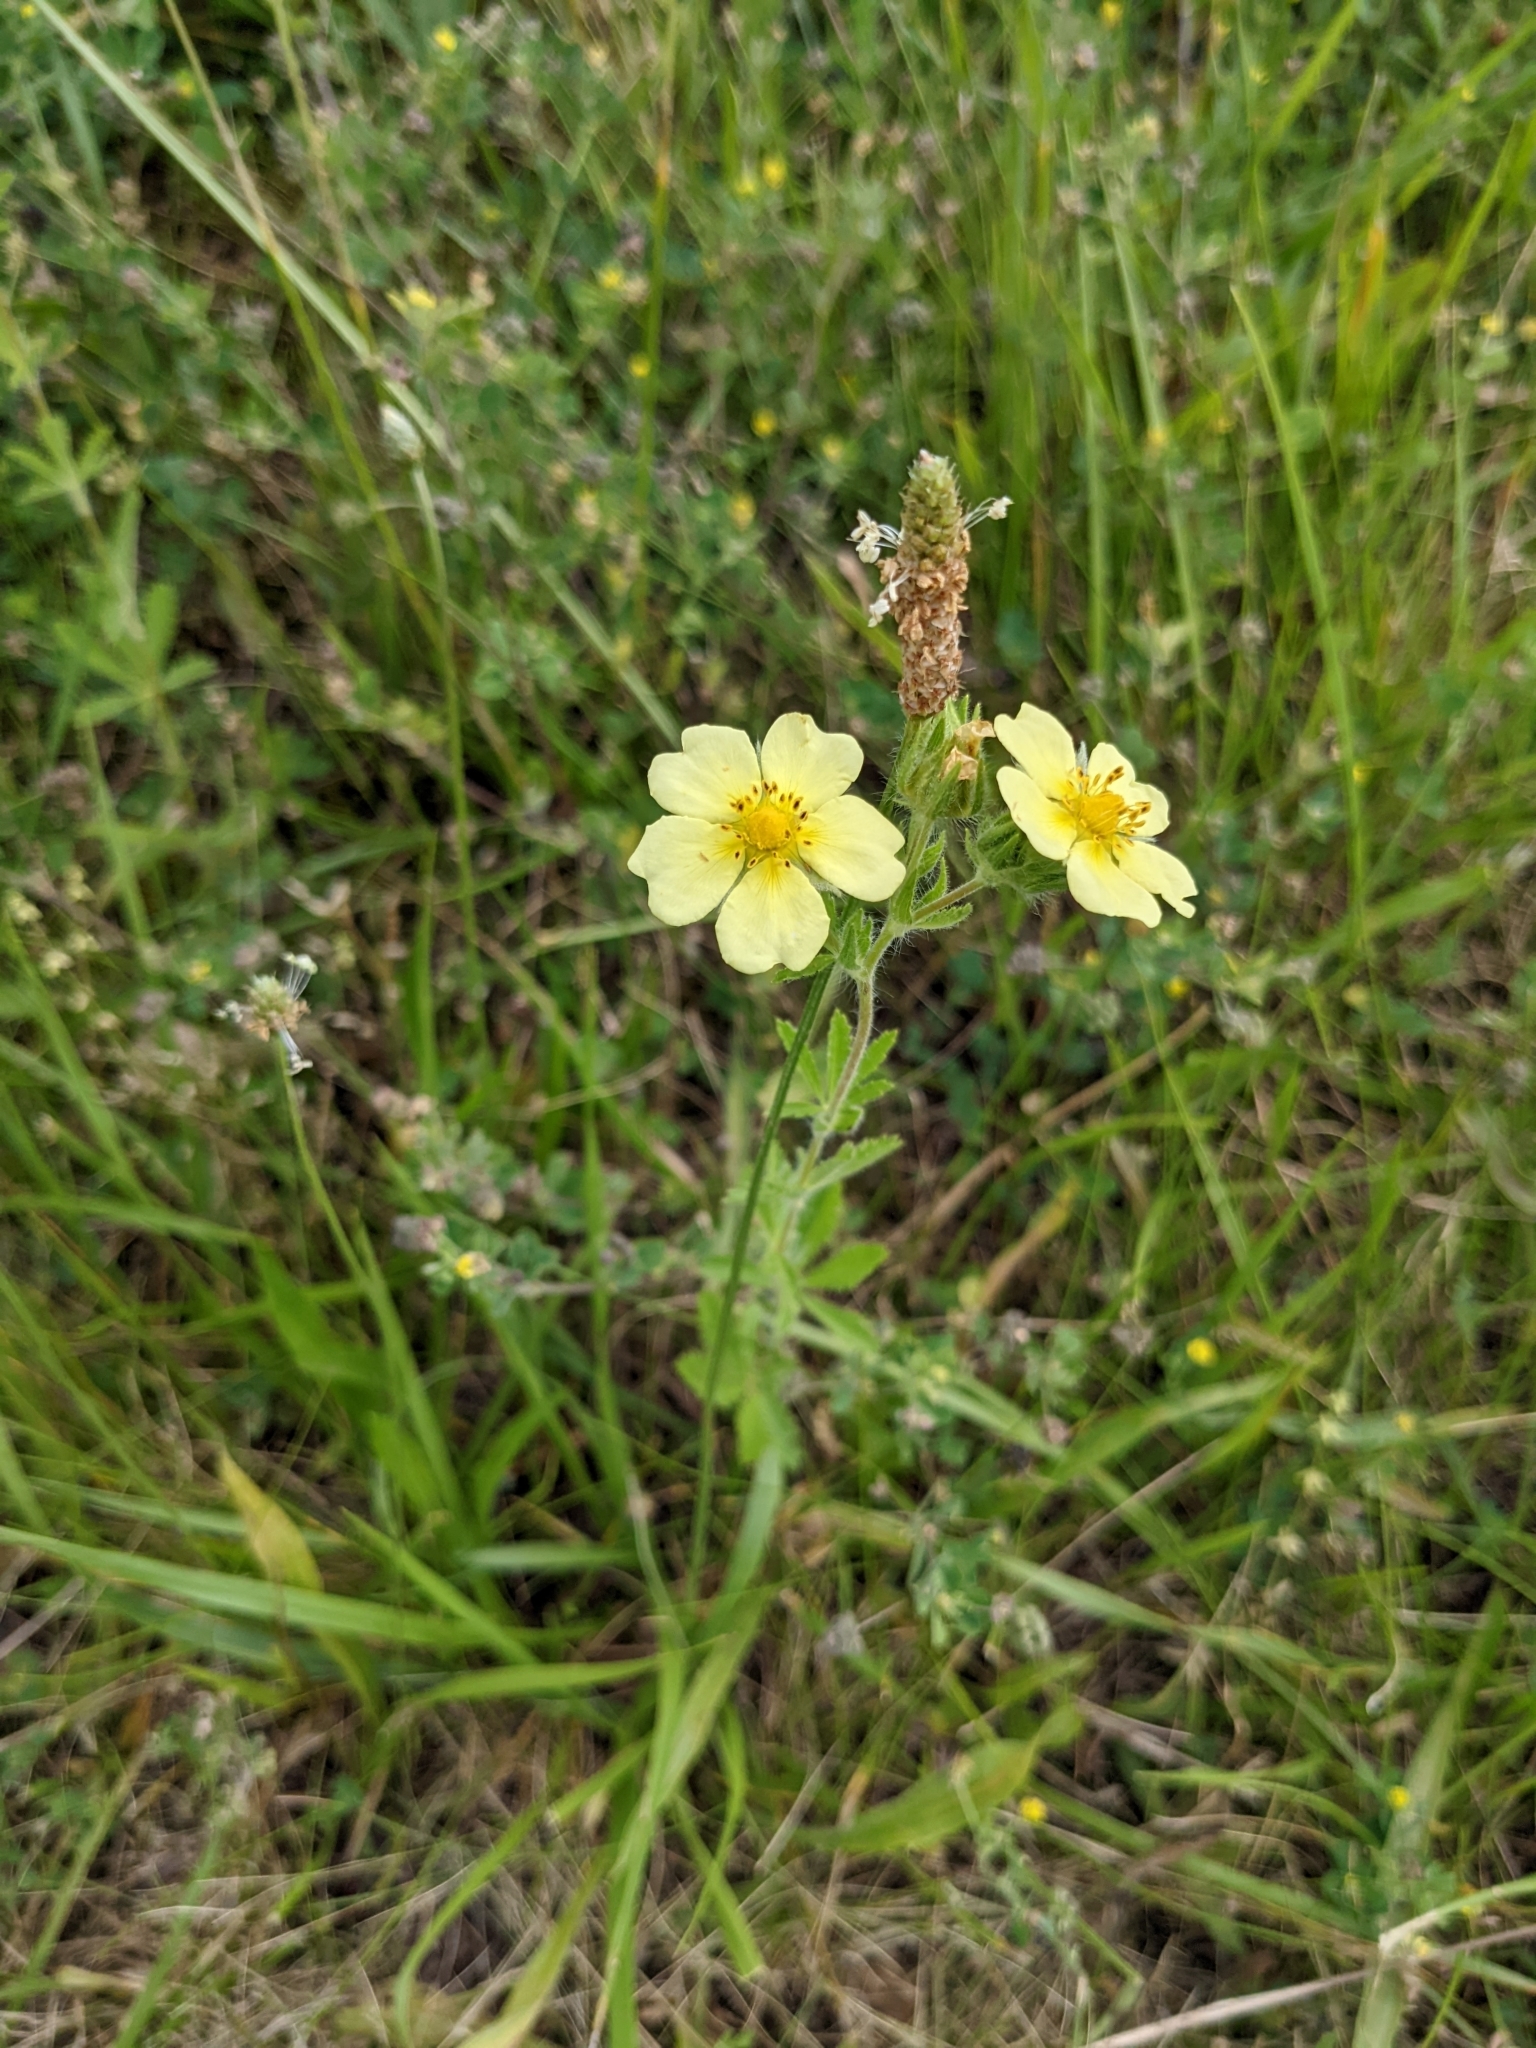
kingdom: Plantae
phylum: Tracheophyta
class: Magnoliopsida
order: Rosales
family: Rosaceae
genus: Potentilla
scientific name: Potentilla recta
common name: Sulphur cinquefoil
